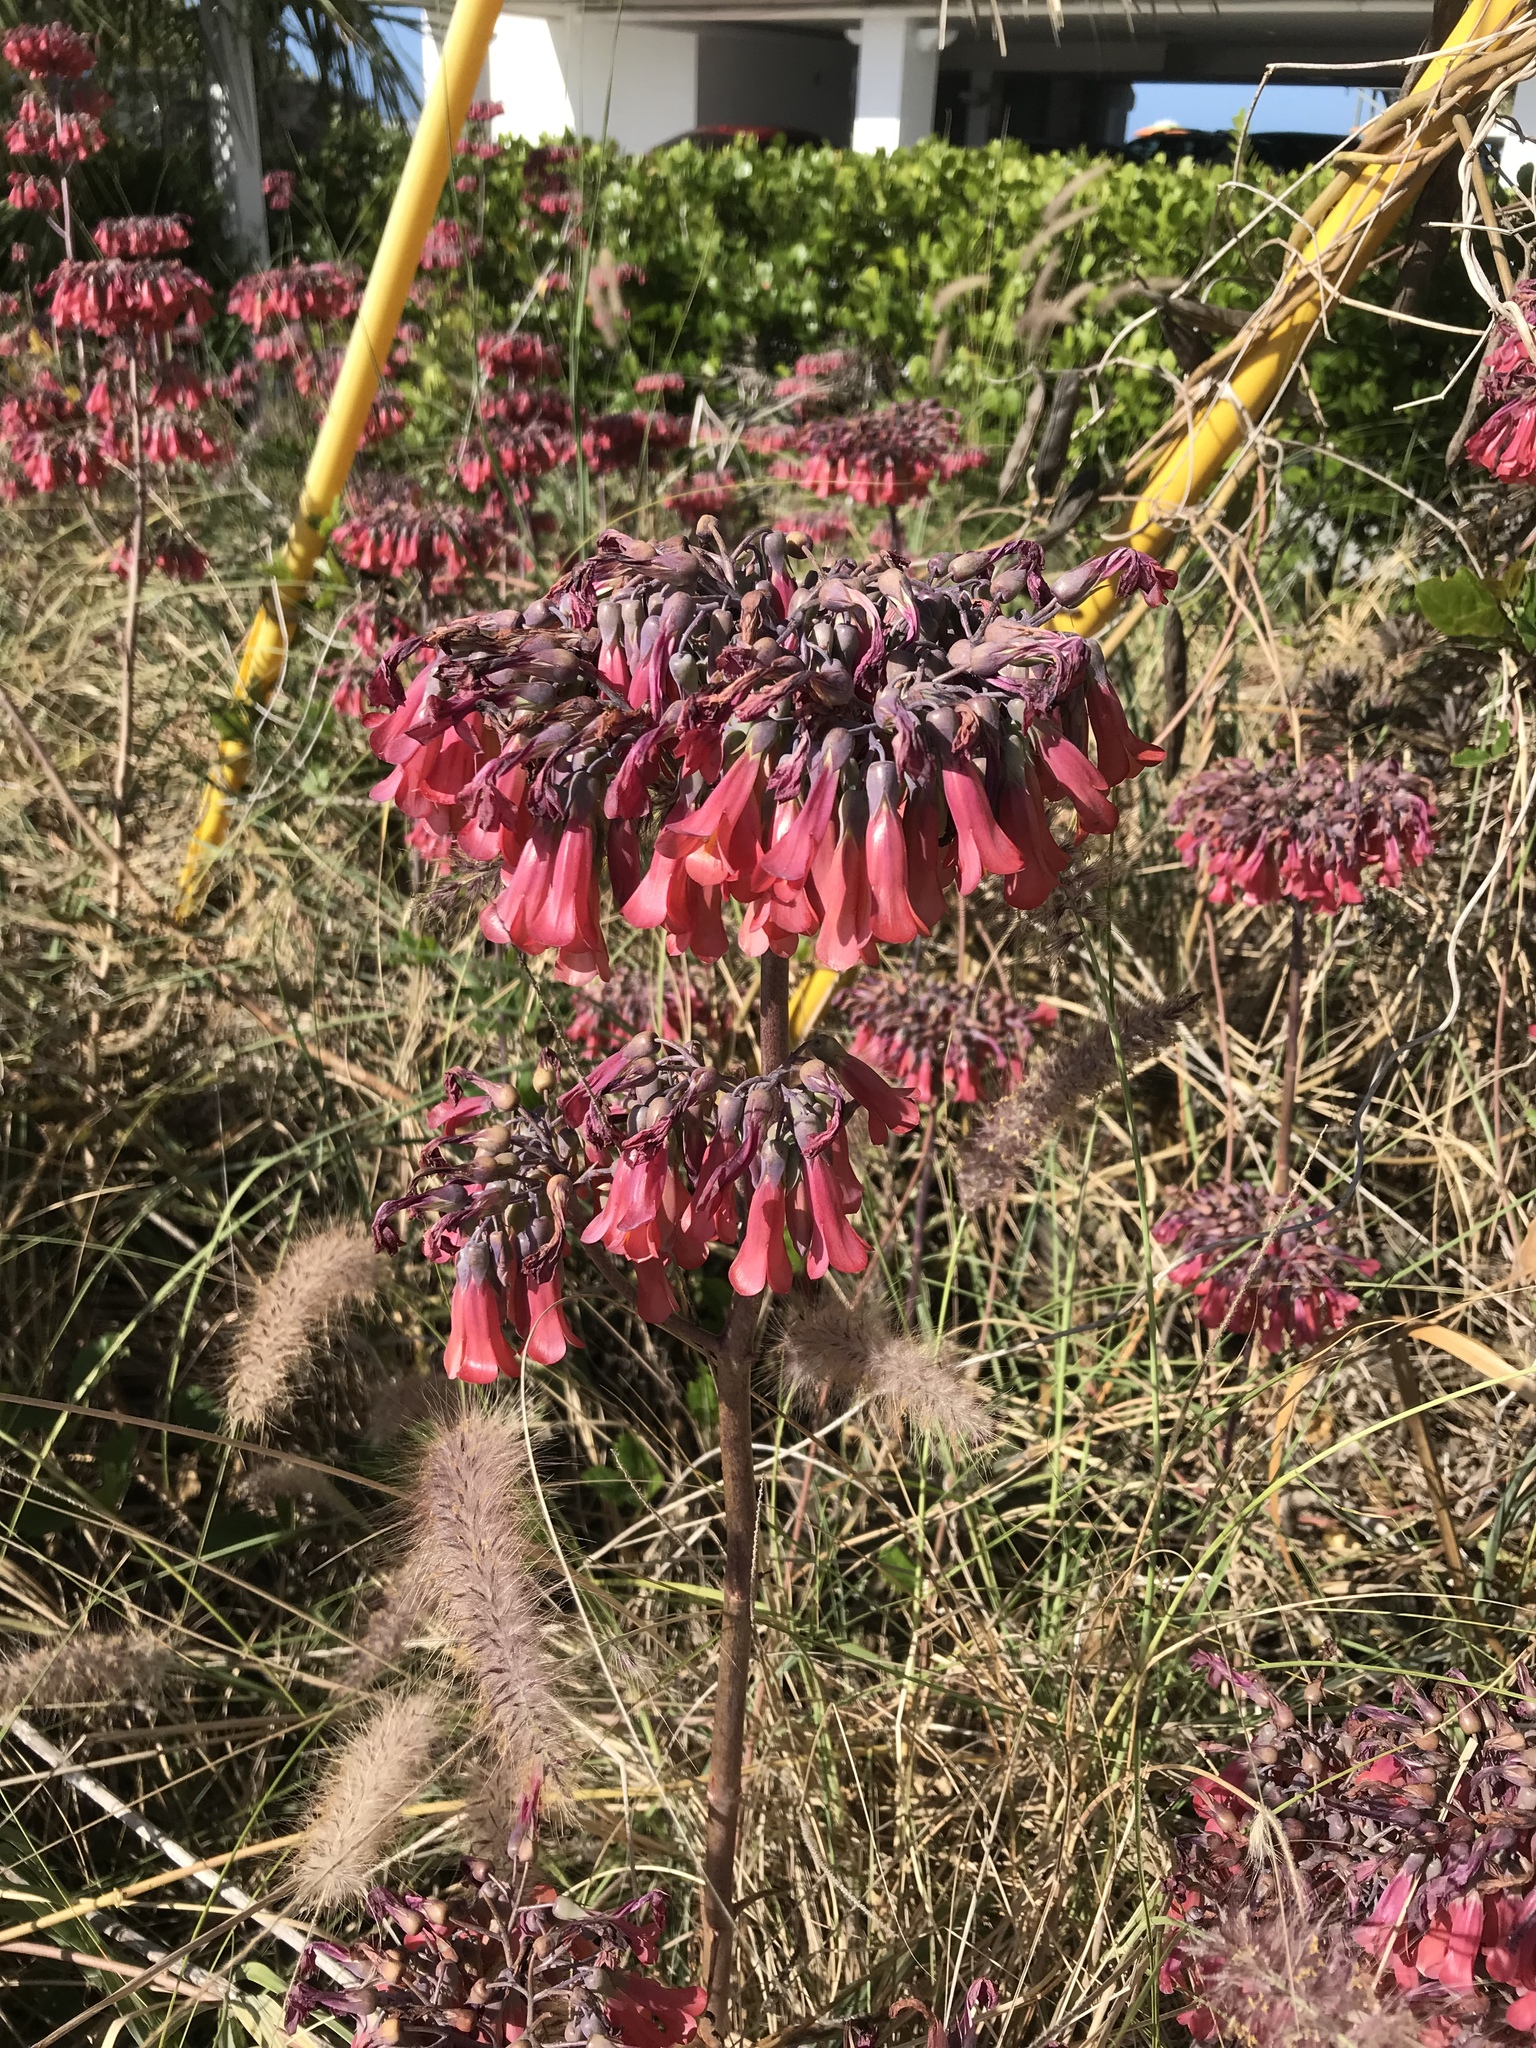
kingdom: Plantae
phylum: Tracheophyta
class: Magnoliopsida
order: Saxifragales
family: Crassulaceae
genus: Kalanchoe
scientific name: Kalanchoe delagoensis
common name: Chandelier plant
